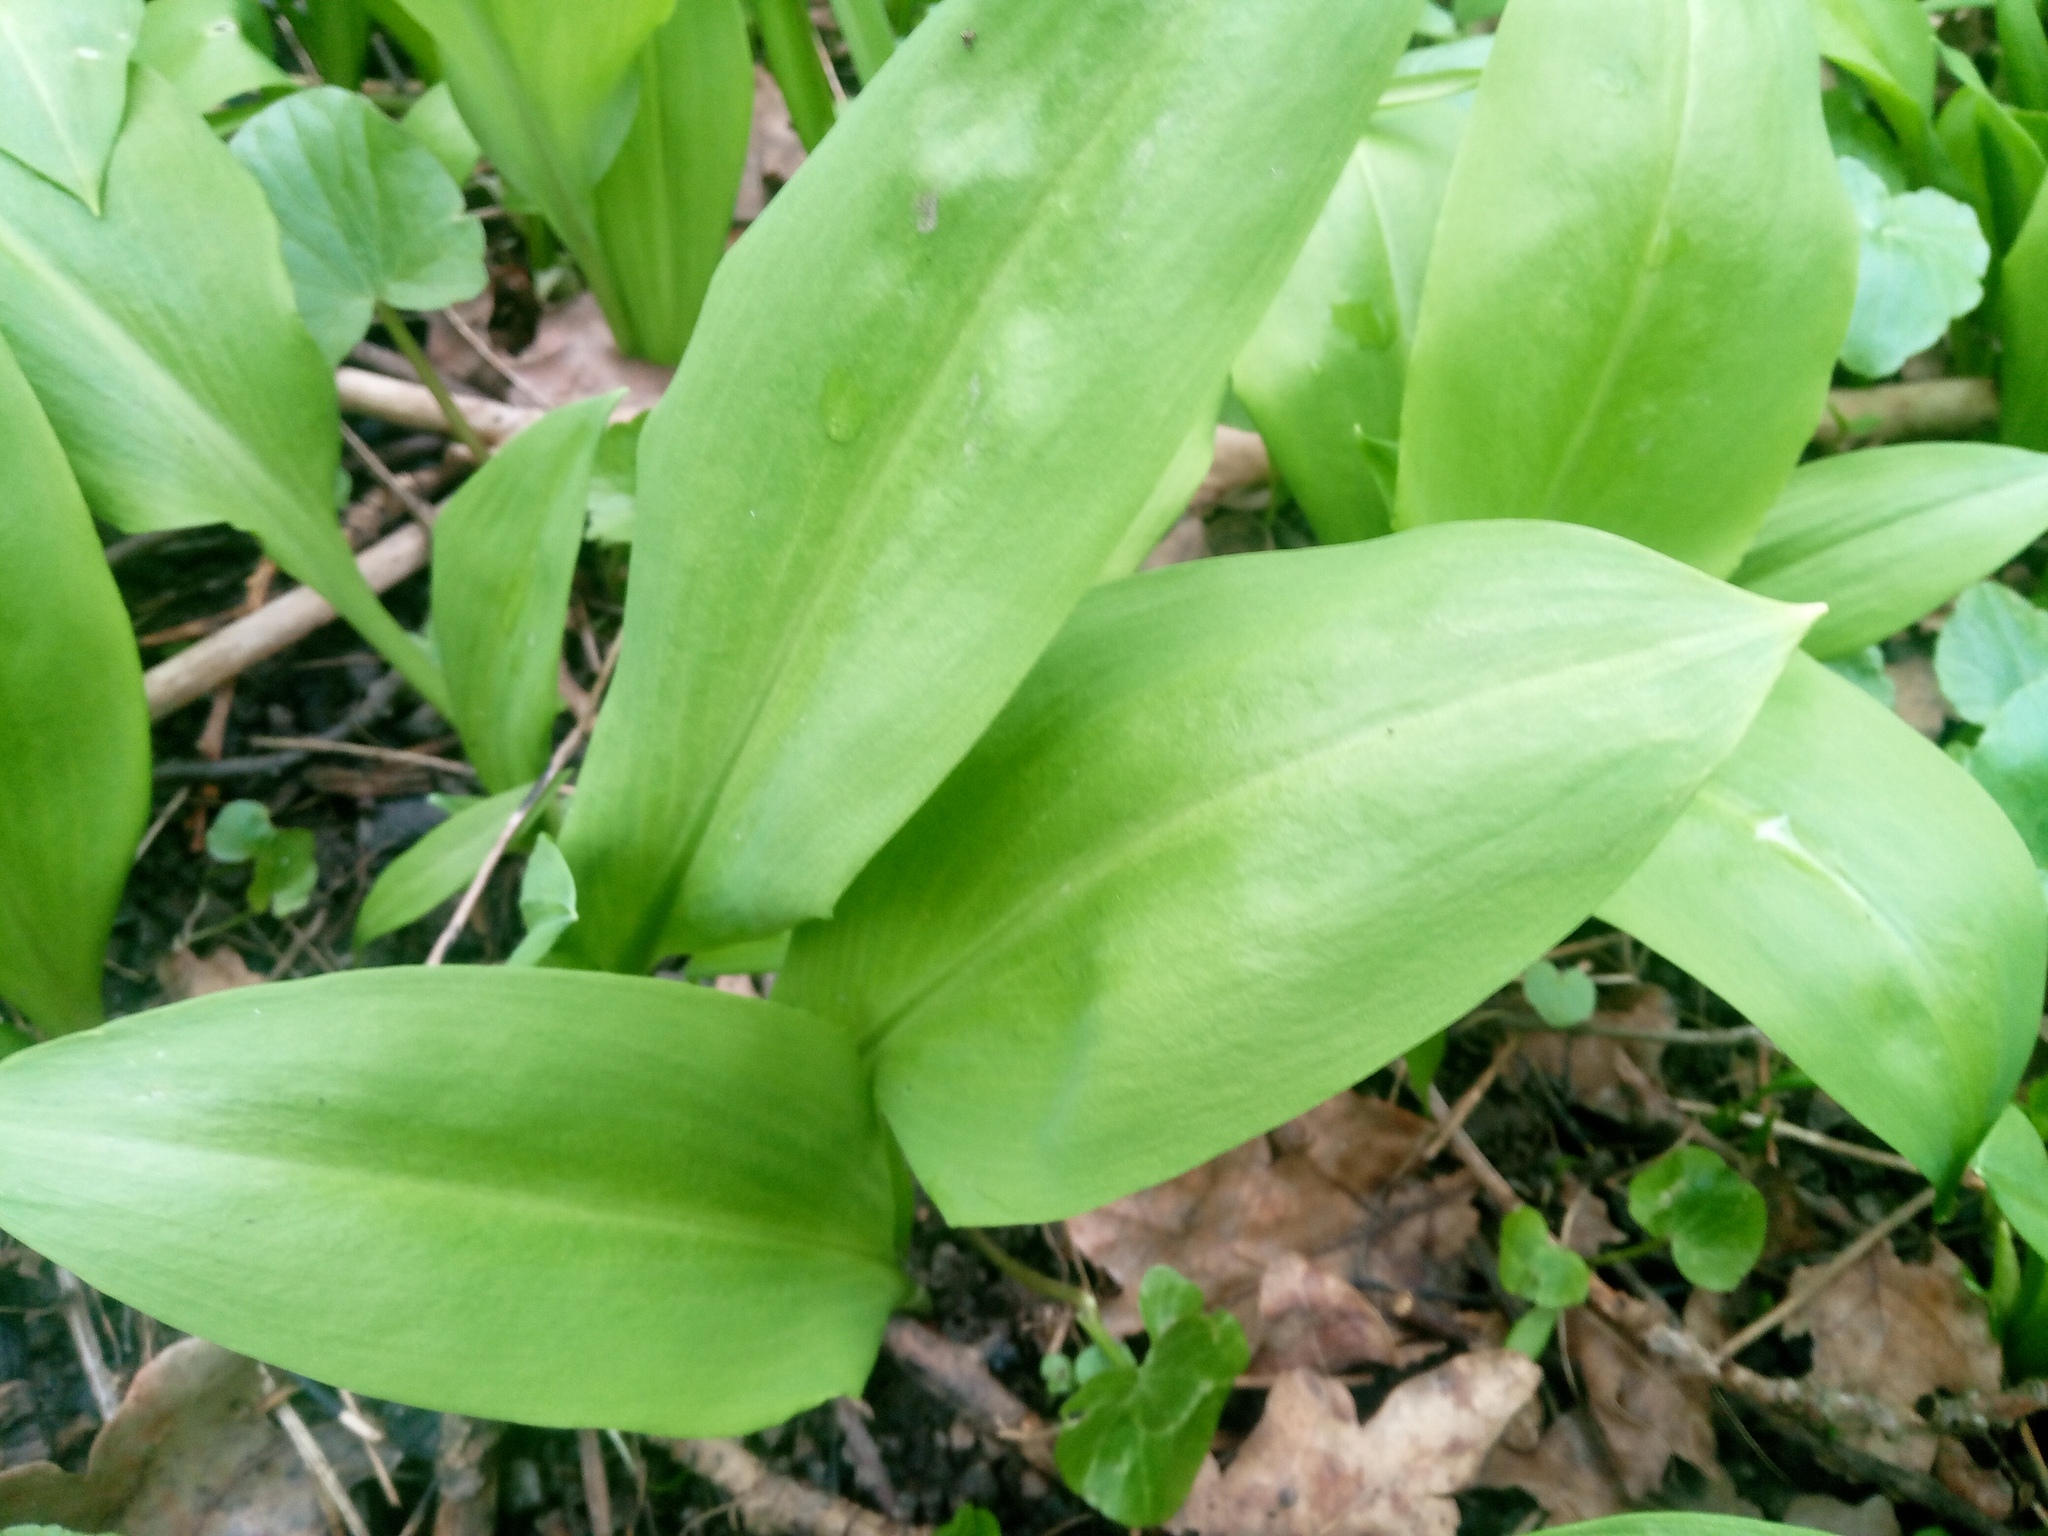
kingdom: Plantae
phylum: Tracheophyta
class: Liliopsida
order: Asparagales
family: Amaryllidaceae
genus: Allium
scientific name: Allium ursinum
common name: Ramsons
